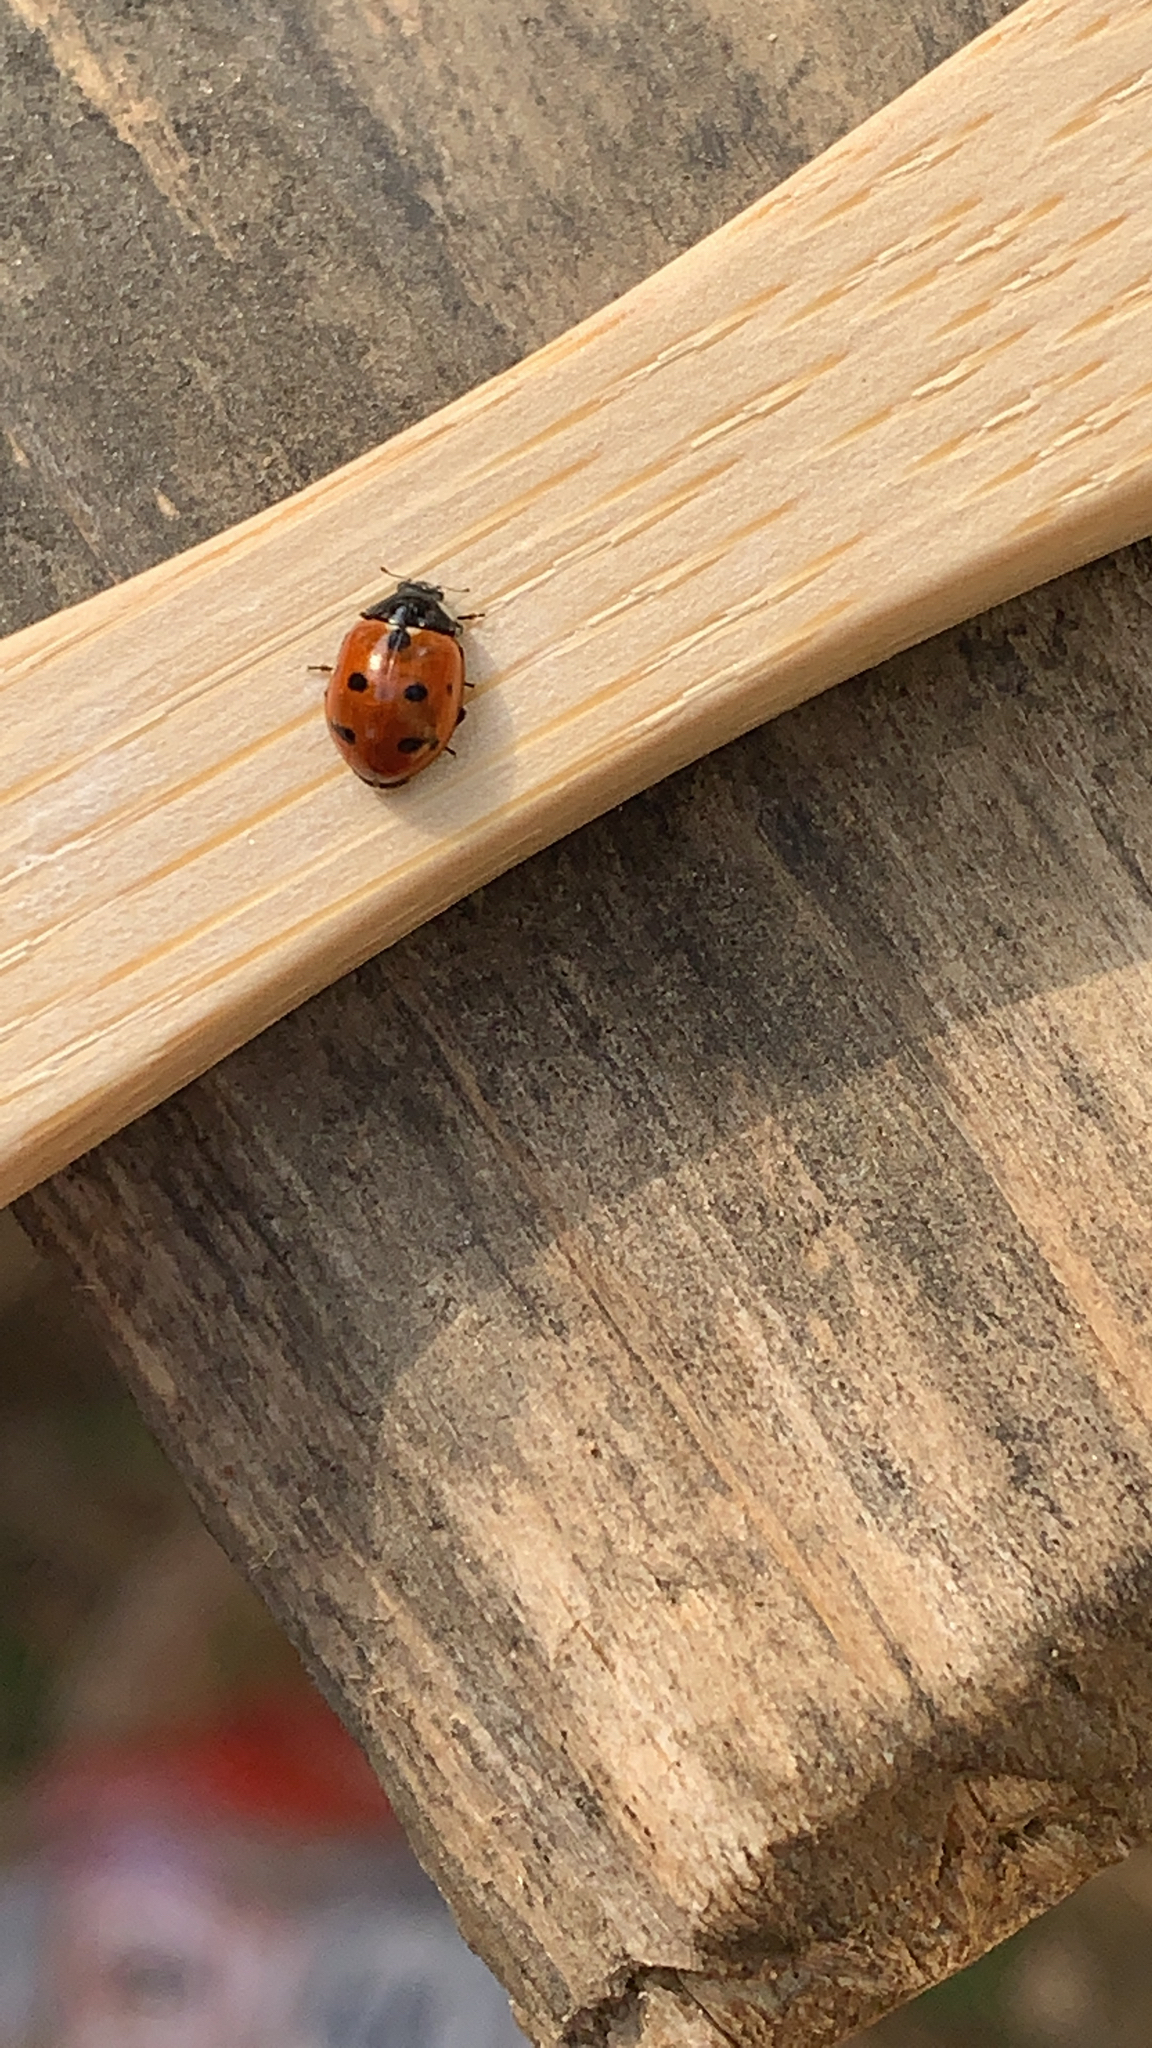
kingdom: Animalia
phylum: Arthropoda
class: Insecta
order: Coleoptera
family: Coccinellidae
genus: Coccinella
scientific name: Coccinella undecimpunctata
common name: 11-spot ladybird
